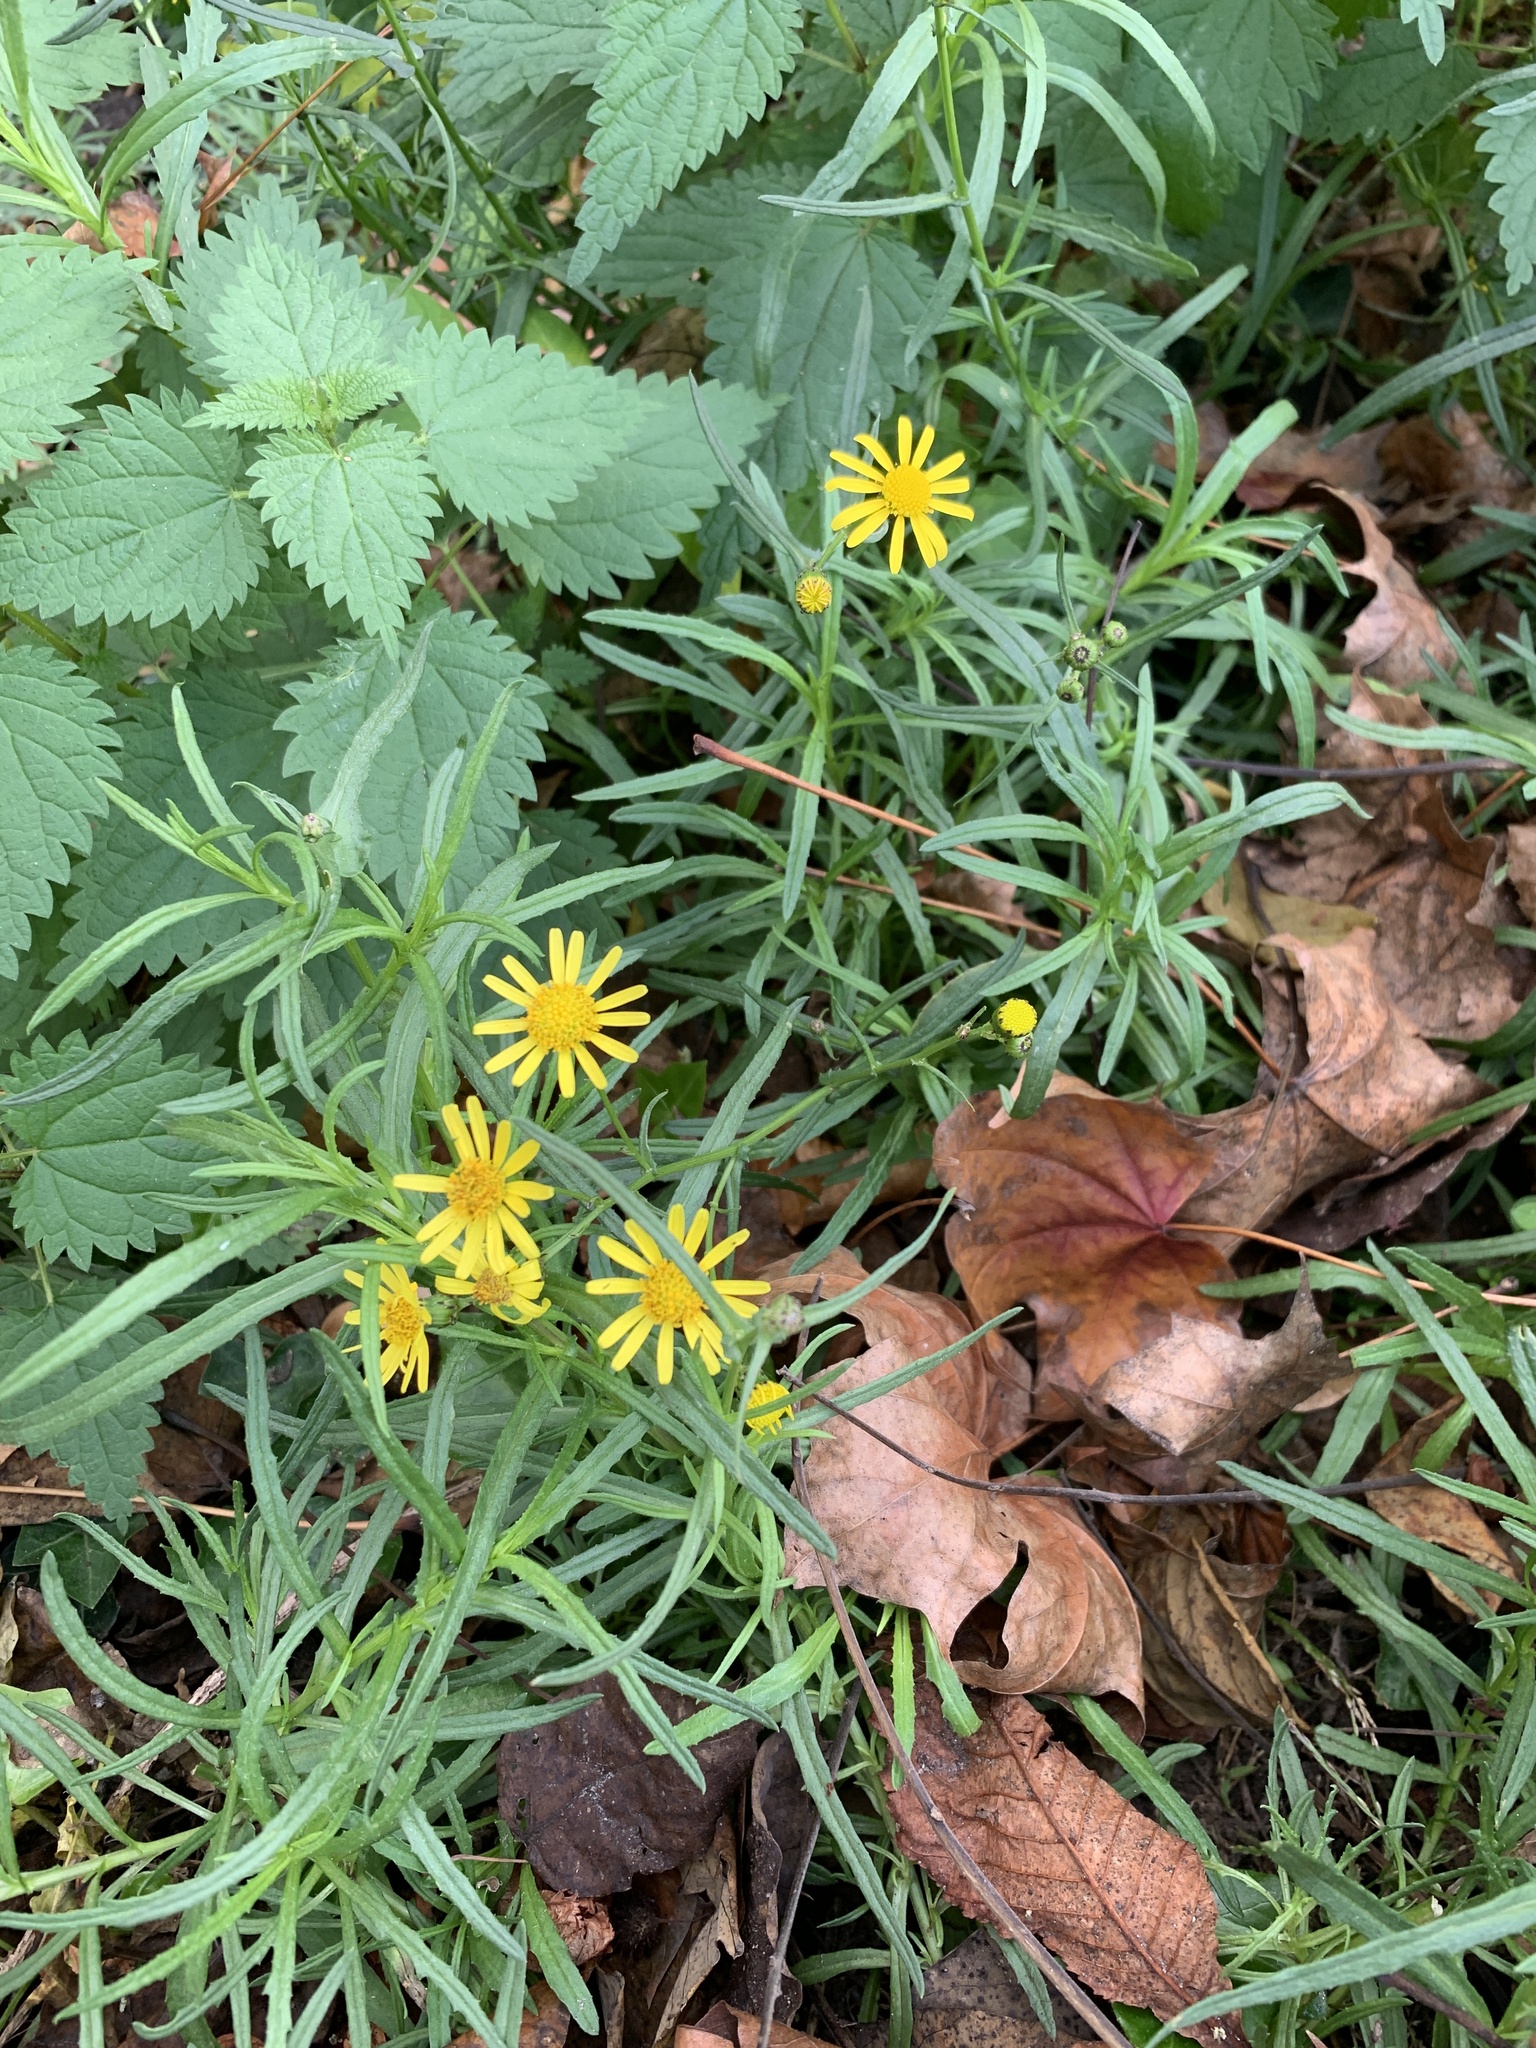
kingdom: Plantae
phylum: Tracheophyta
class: Magnoliopsida
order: Asterales
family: Asteraceae
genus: Senecio
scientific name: Senecio inaequidens
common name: Narrow-leaved ragwort
